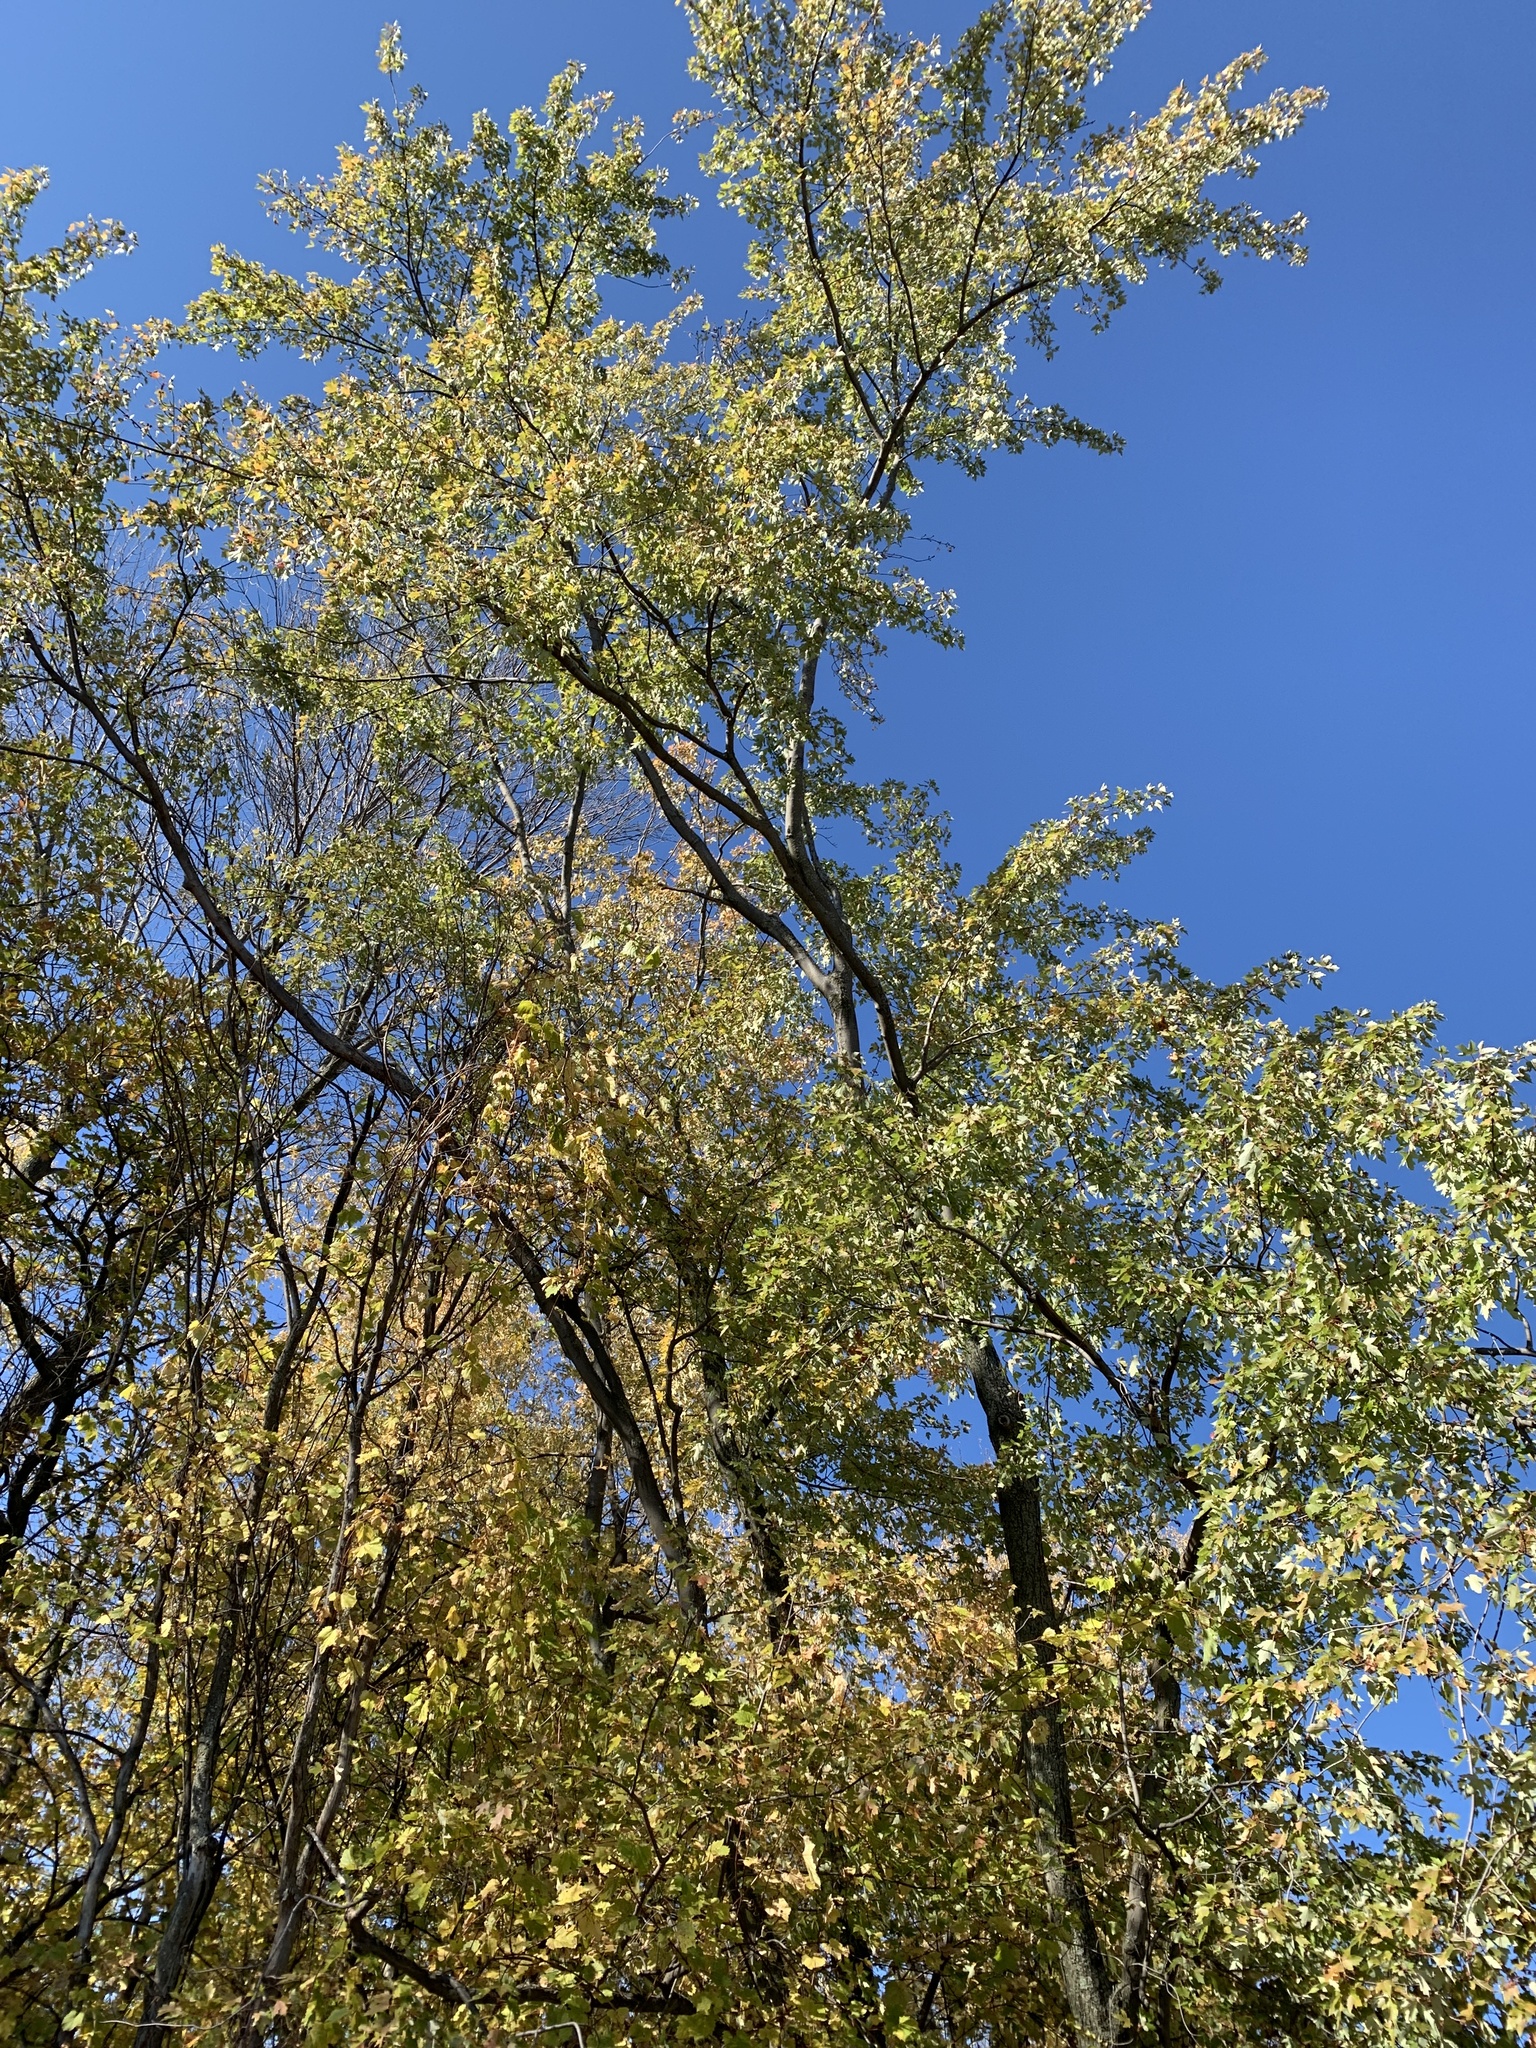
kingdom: Plantae
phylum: Tracheophyta
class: Magnoliopsida
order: Sapindales
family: Sapindaceae
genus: Acer
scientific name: Acer saccharinum
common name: Silver maple
